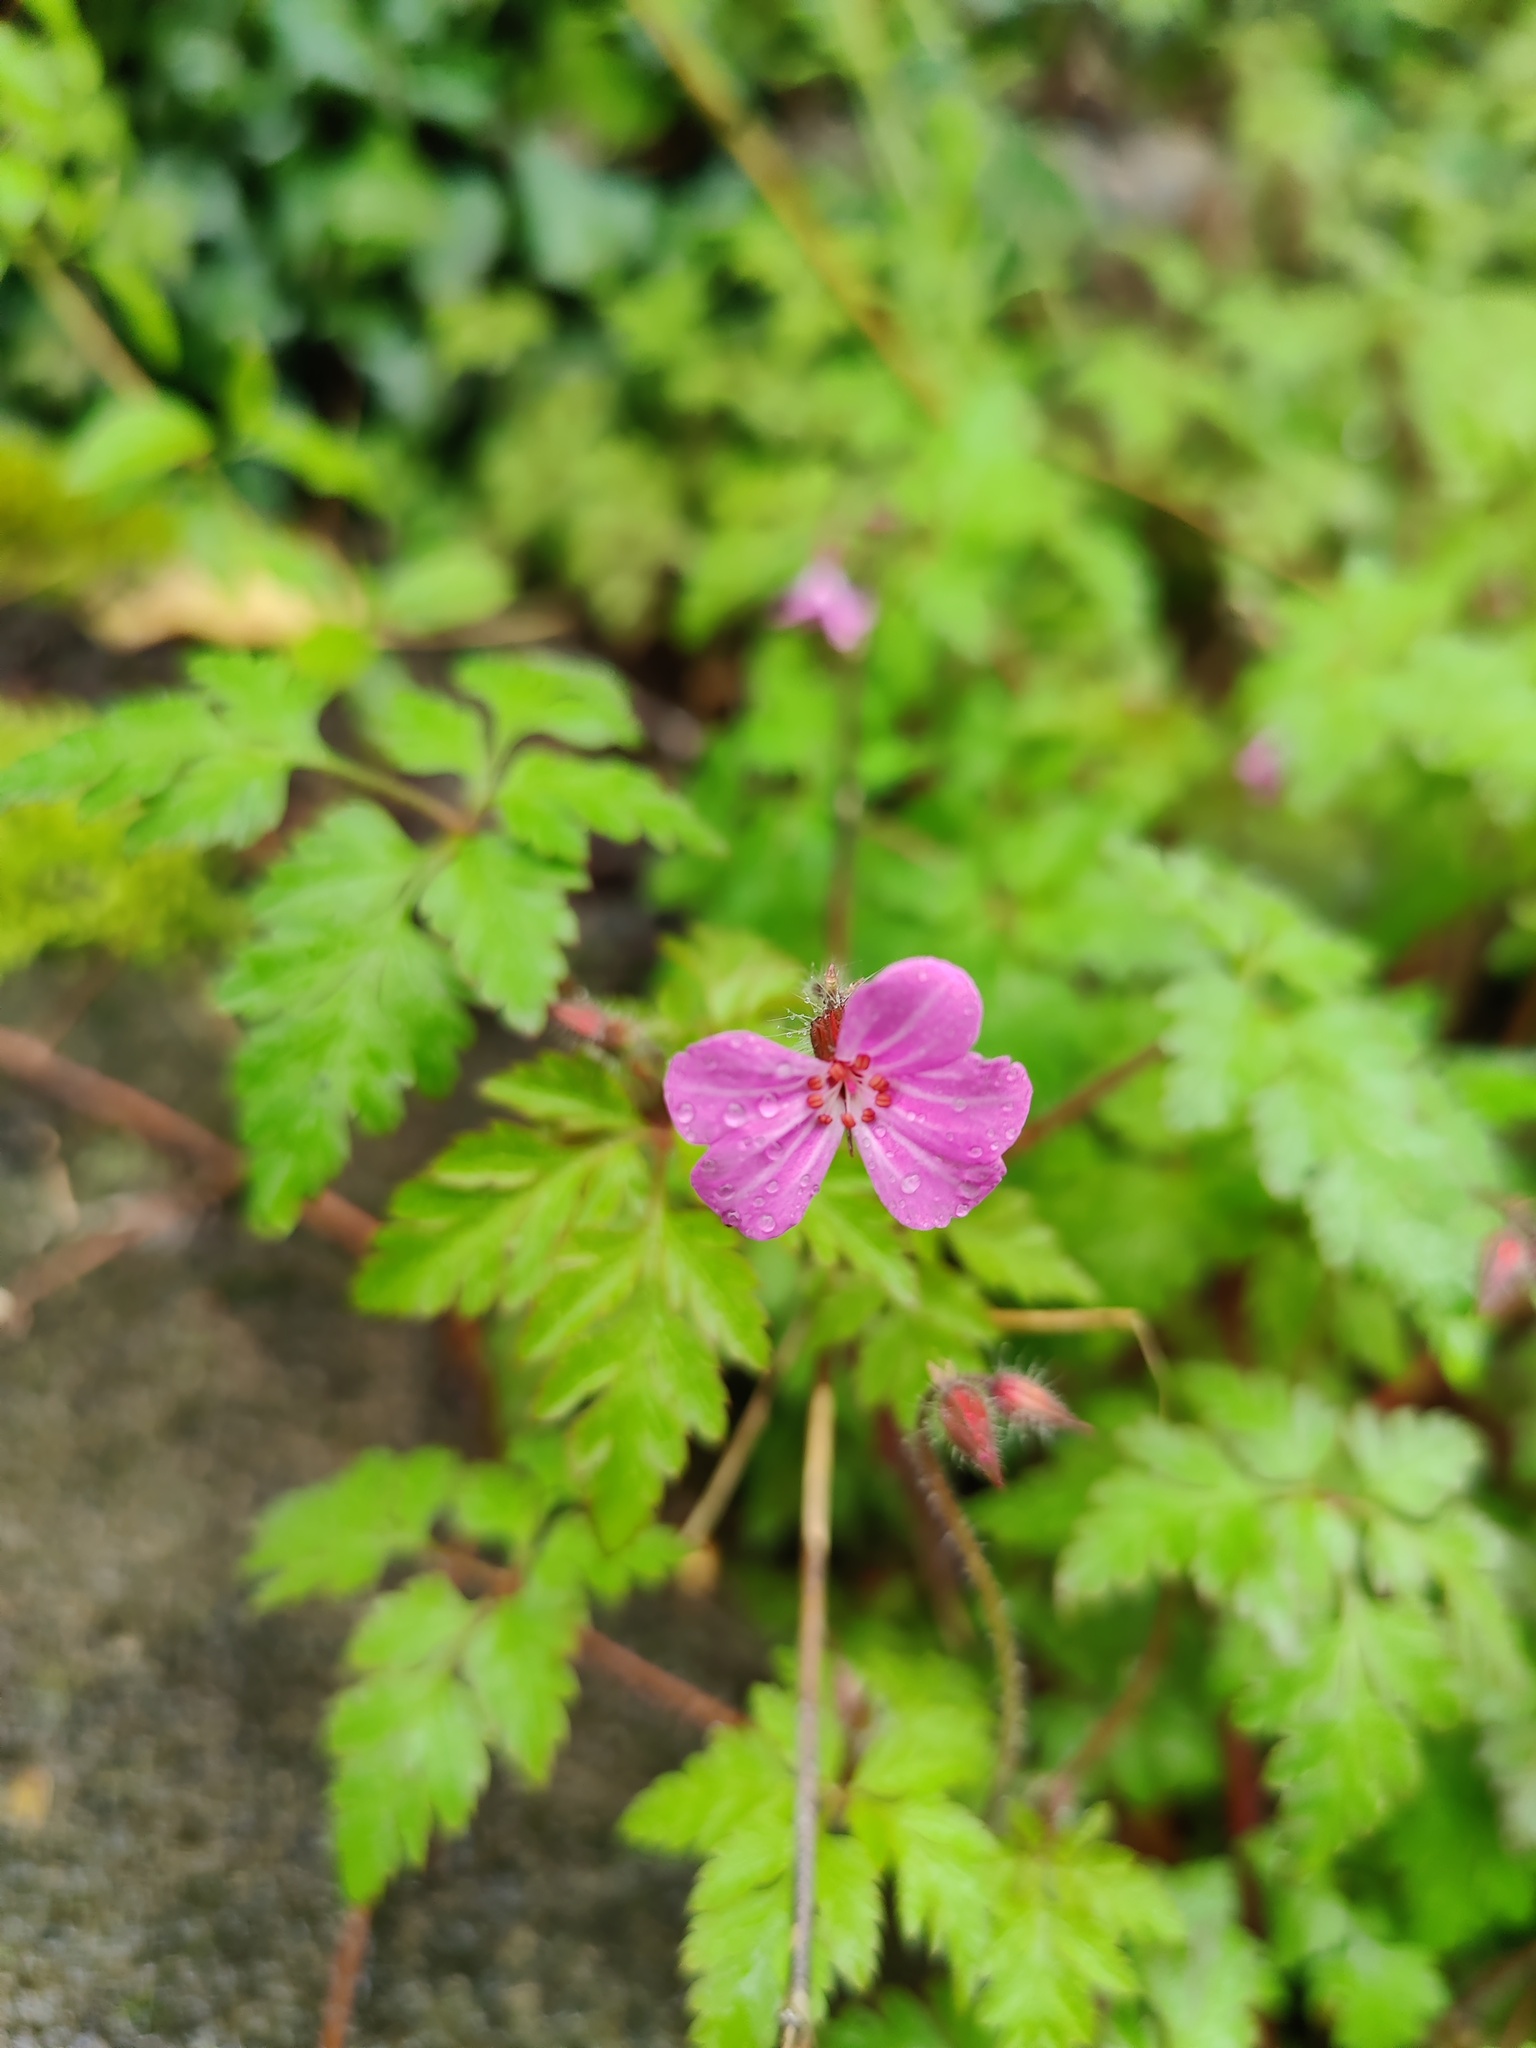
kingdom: Plantae
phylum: Tracheophyta
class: Magnoliopsida
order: Geraniales
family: Geraniaceae
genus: Geranium
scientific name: Geranium robertianum
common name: Herb-robert
